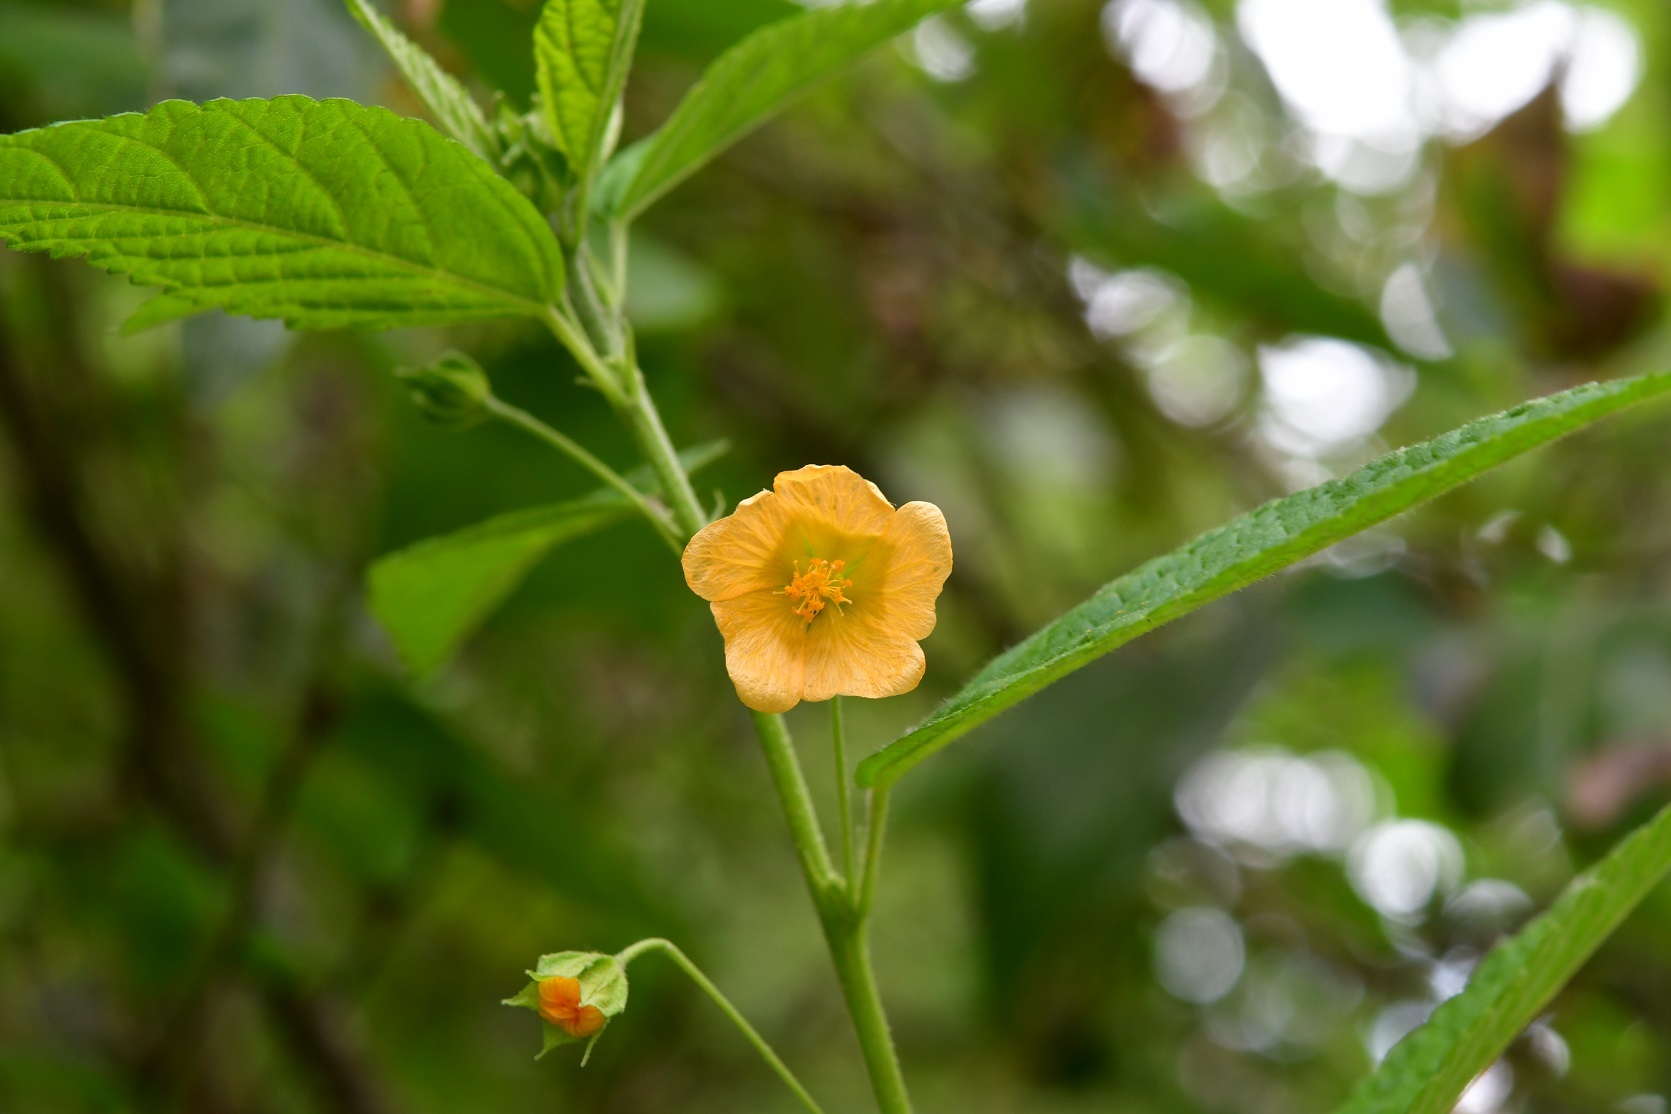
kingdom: Plantae
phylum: Tracheophyta
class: Magnoliopsida
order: Malvales
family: Malvaceae
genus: Sida
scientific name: Sida acuta
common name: Common wireweed
